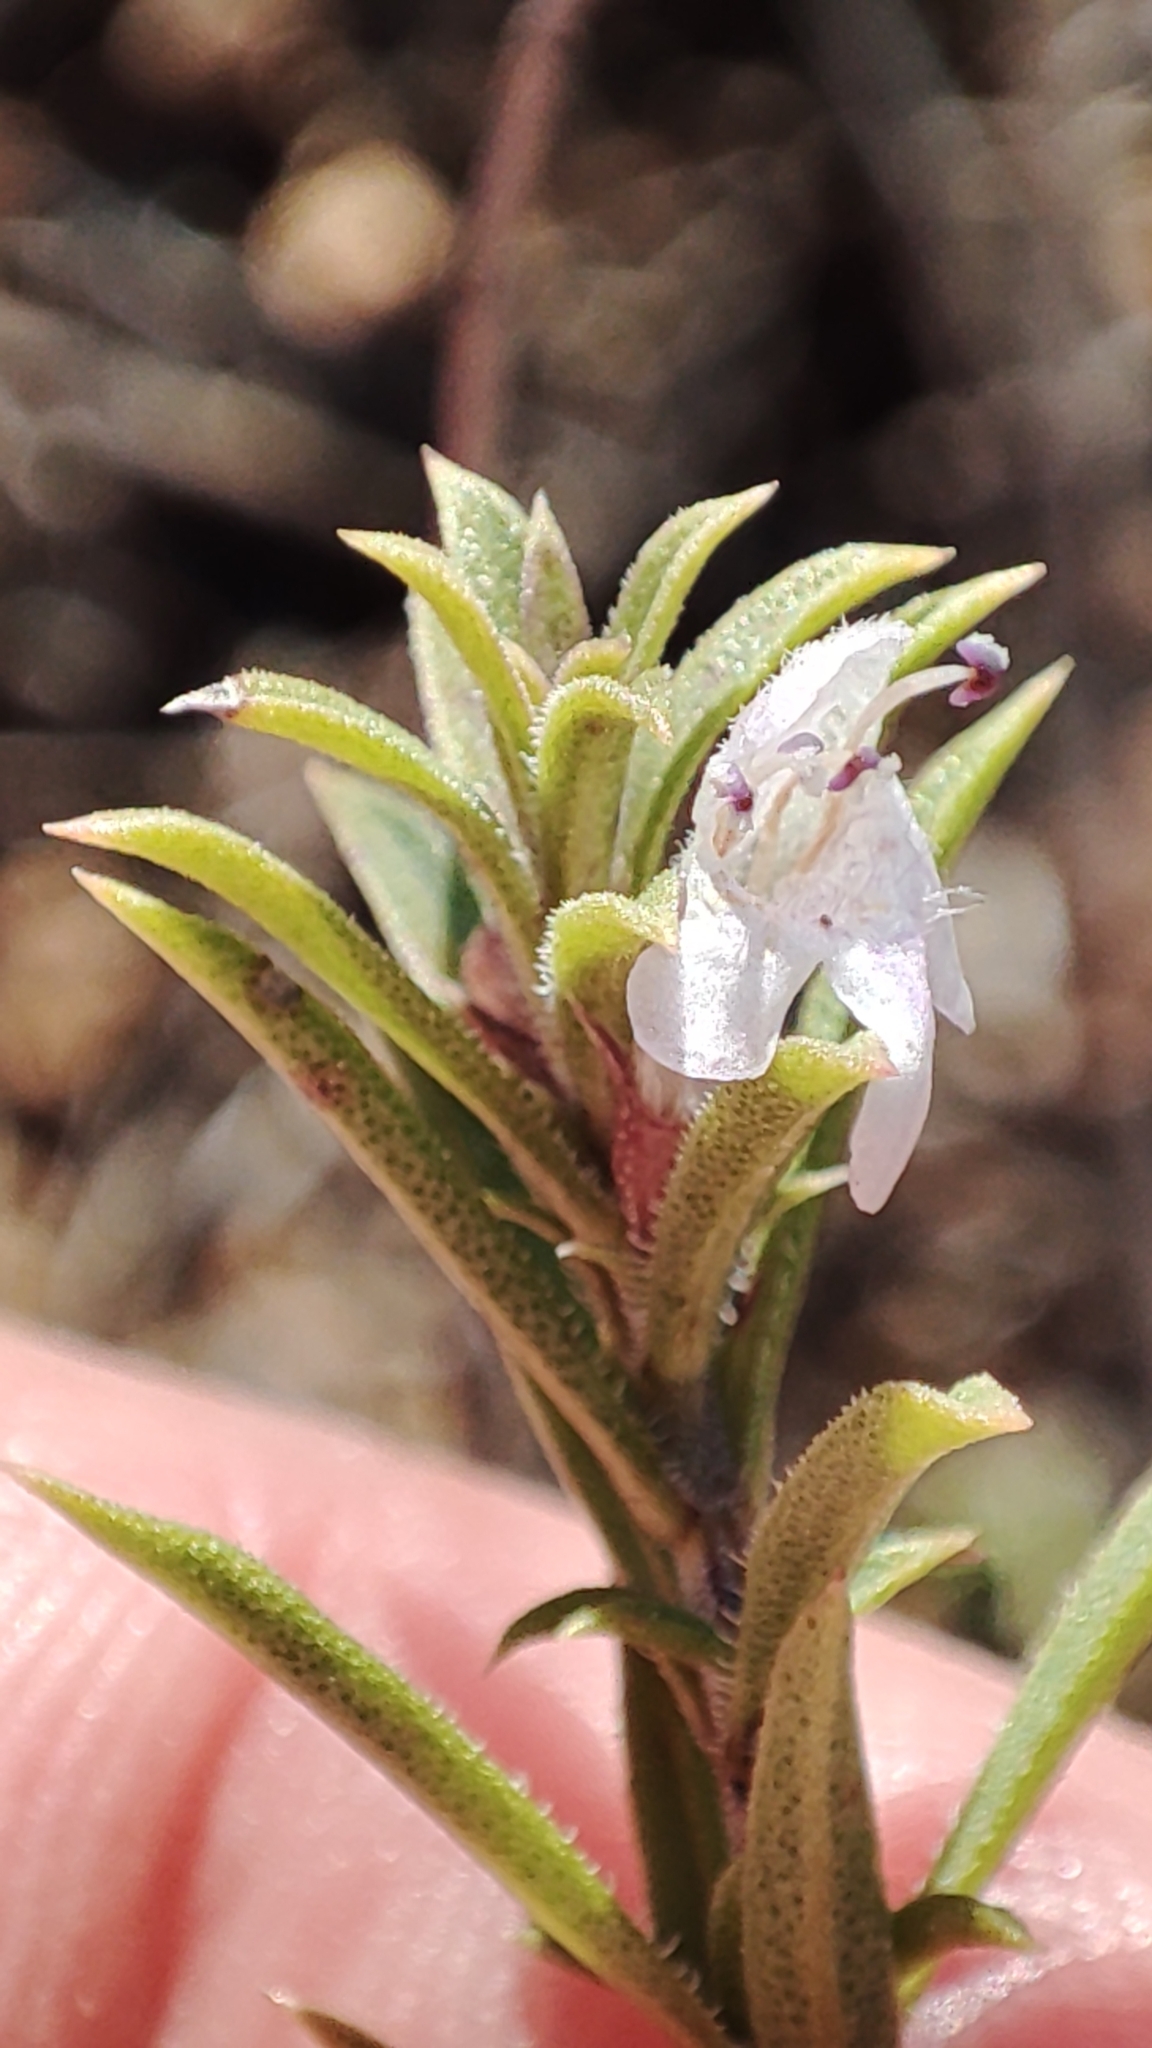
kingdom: Plantae
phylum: Tracheophyta
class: Magnoliopsida
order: Lamiales
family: Lamiaceae
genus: Satureja
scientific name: Satureja montana
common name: Winter savory
